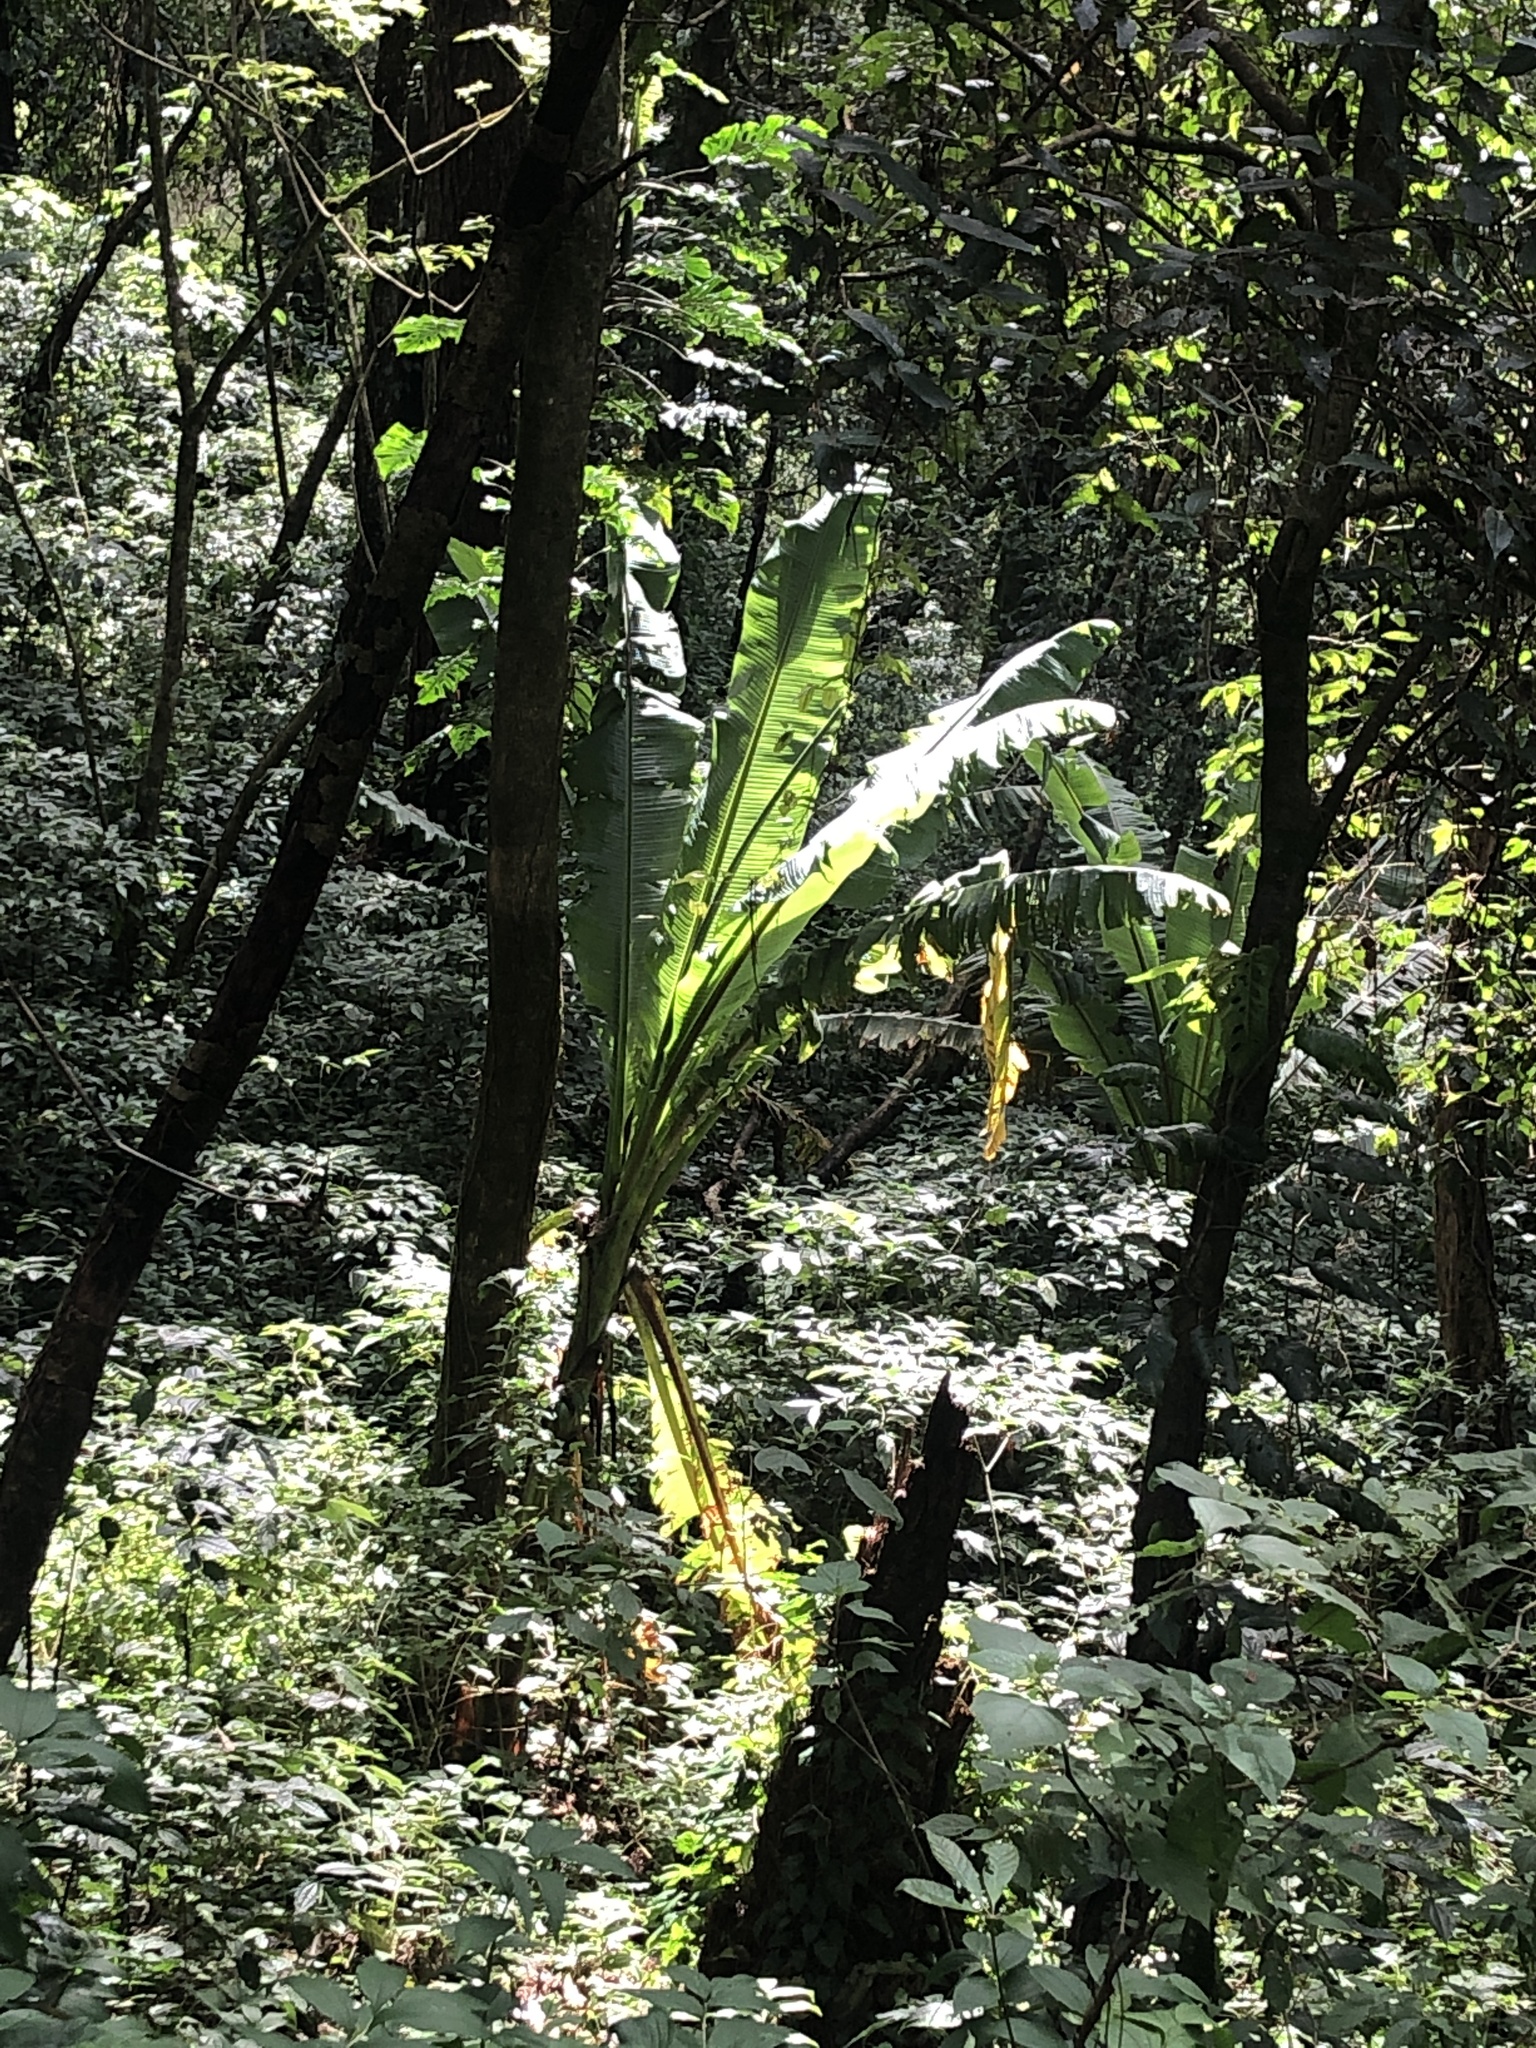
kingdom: Plantae
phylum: Tracheophyta
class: Liliopsida
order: Zingiberales
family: Musaceae
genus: Ensete
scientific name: Ensete ventricosum
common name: Abyssinian banana
